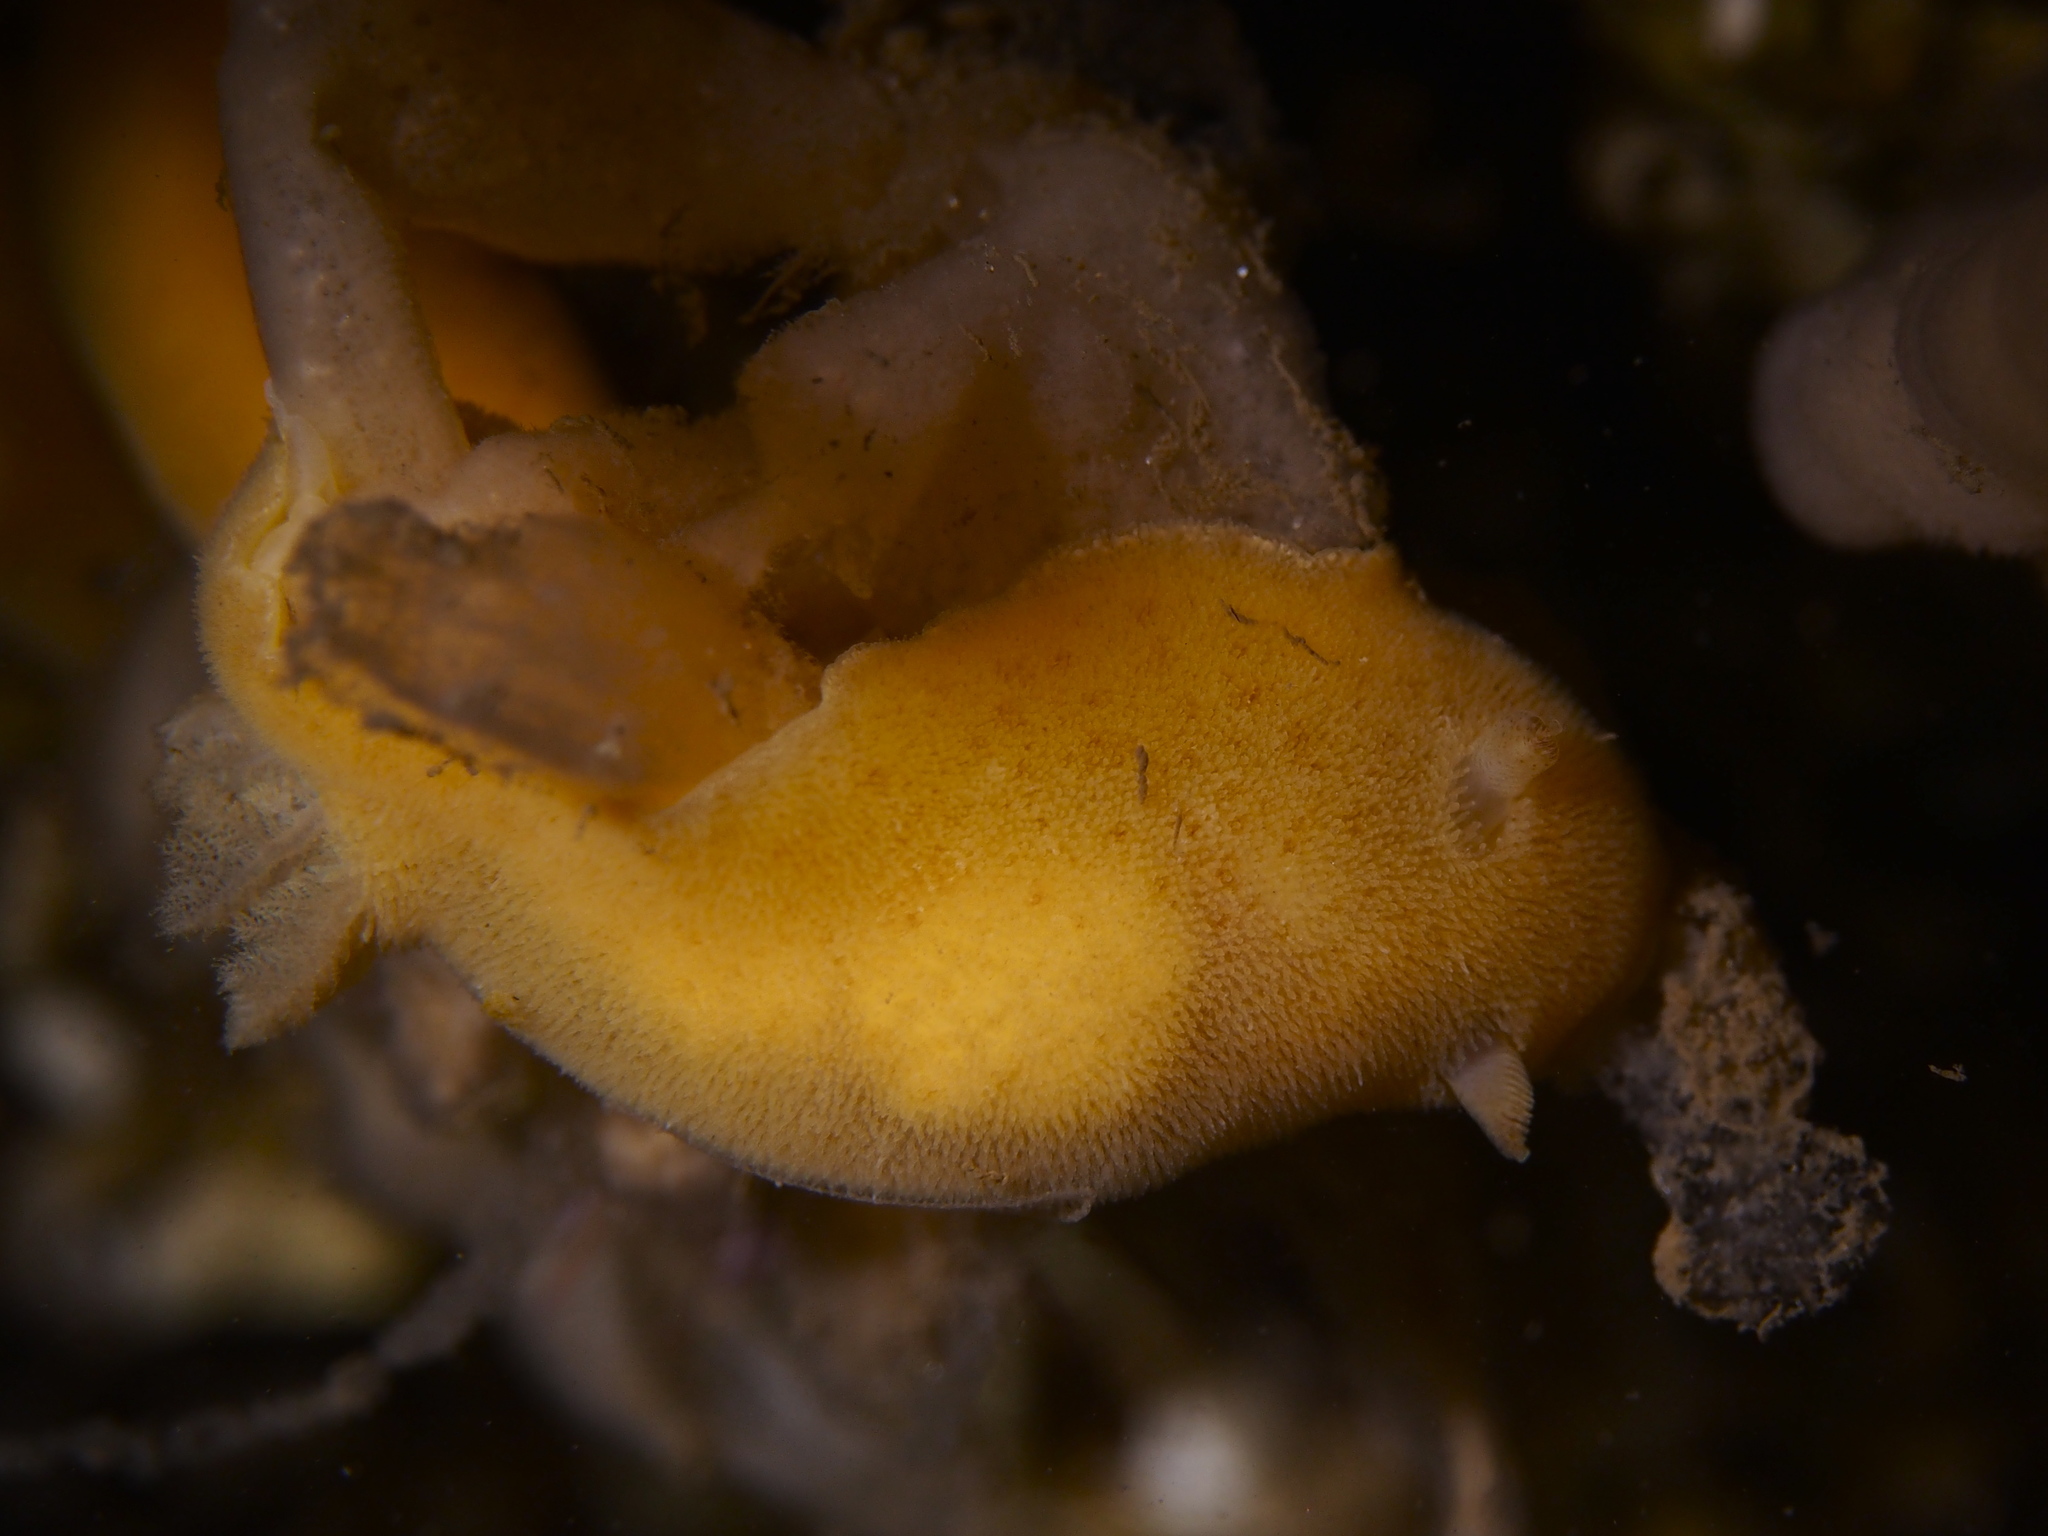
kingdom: Animalia
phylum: Mollusca
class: Gastropoda
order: Nudibranchia
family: Discodorididae
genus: Jorunna
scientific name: Jorunna tomentosa
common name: Grey sea slug
